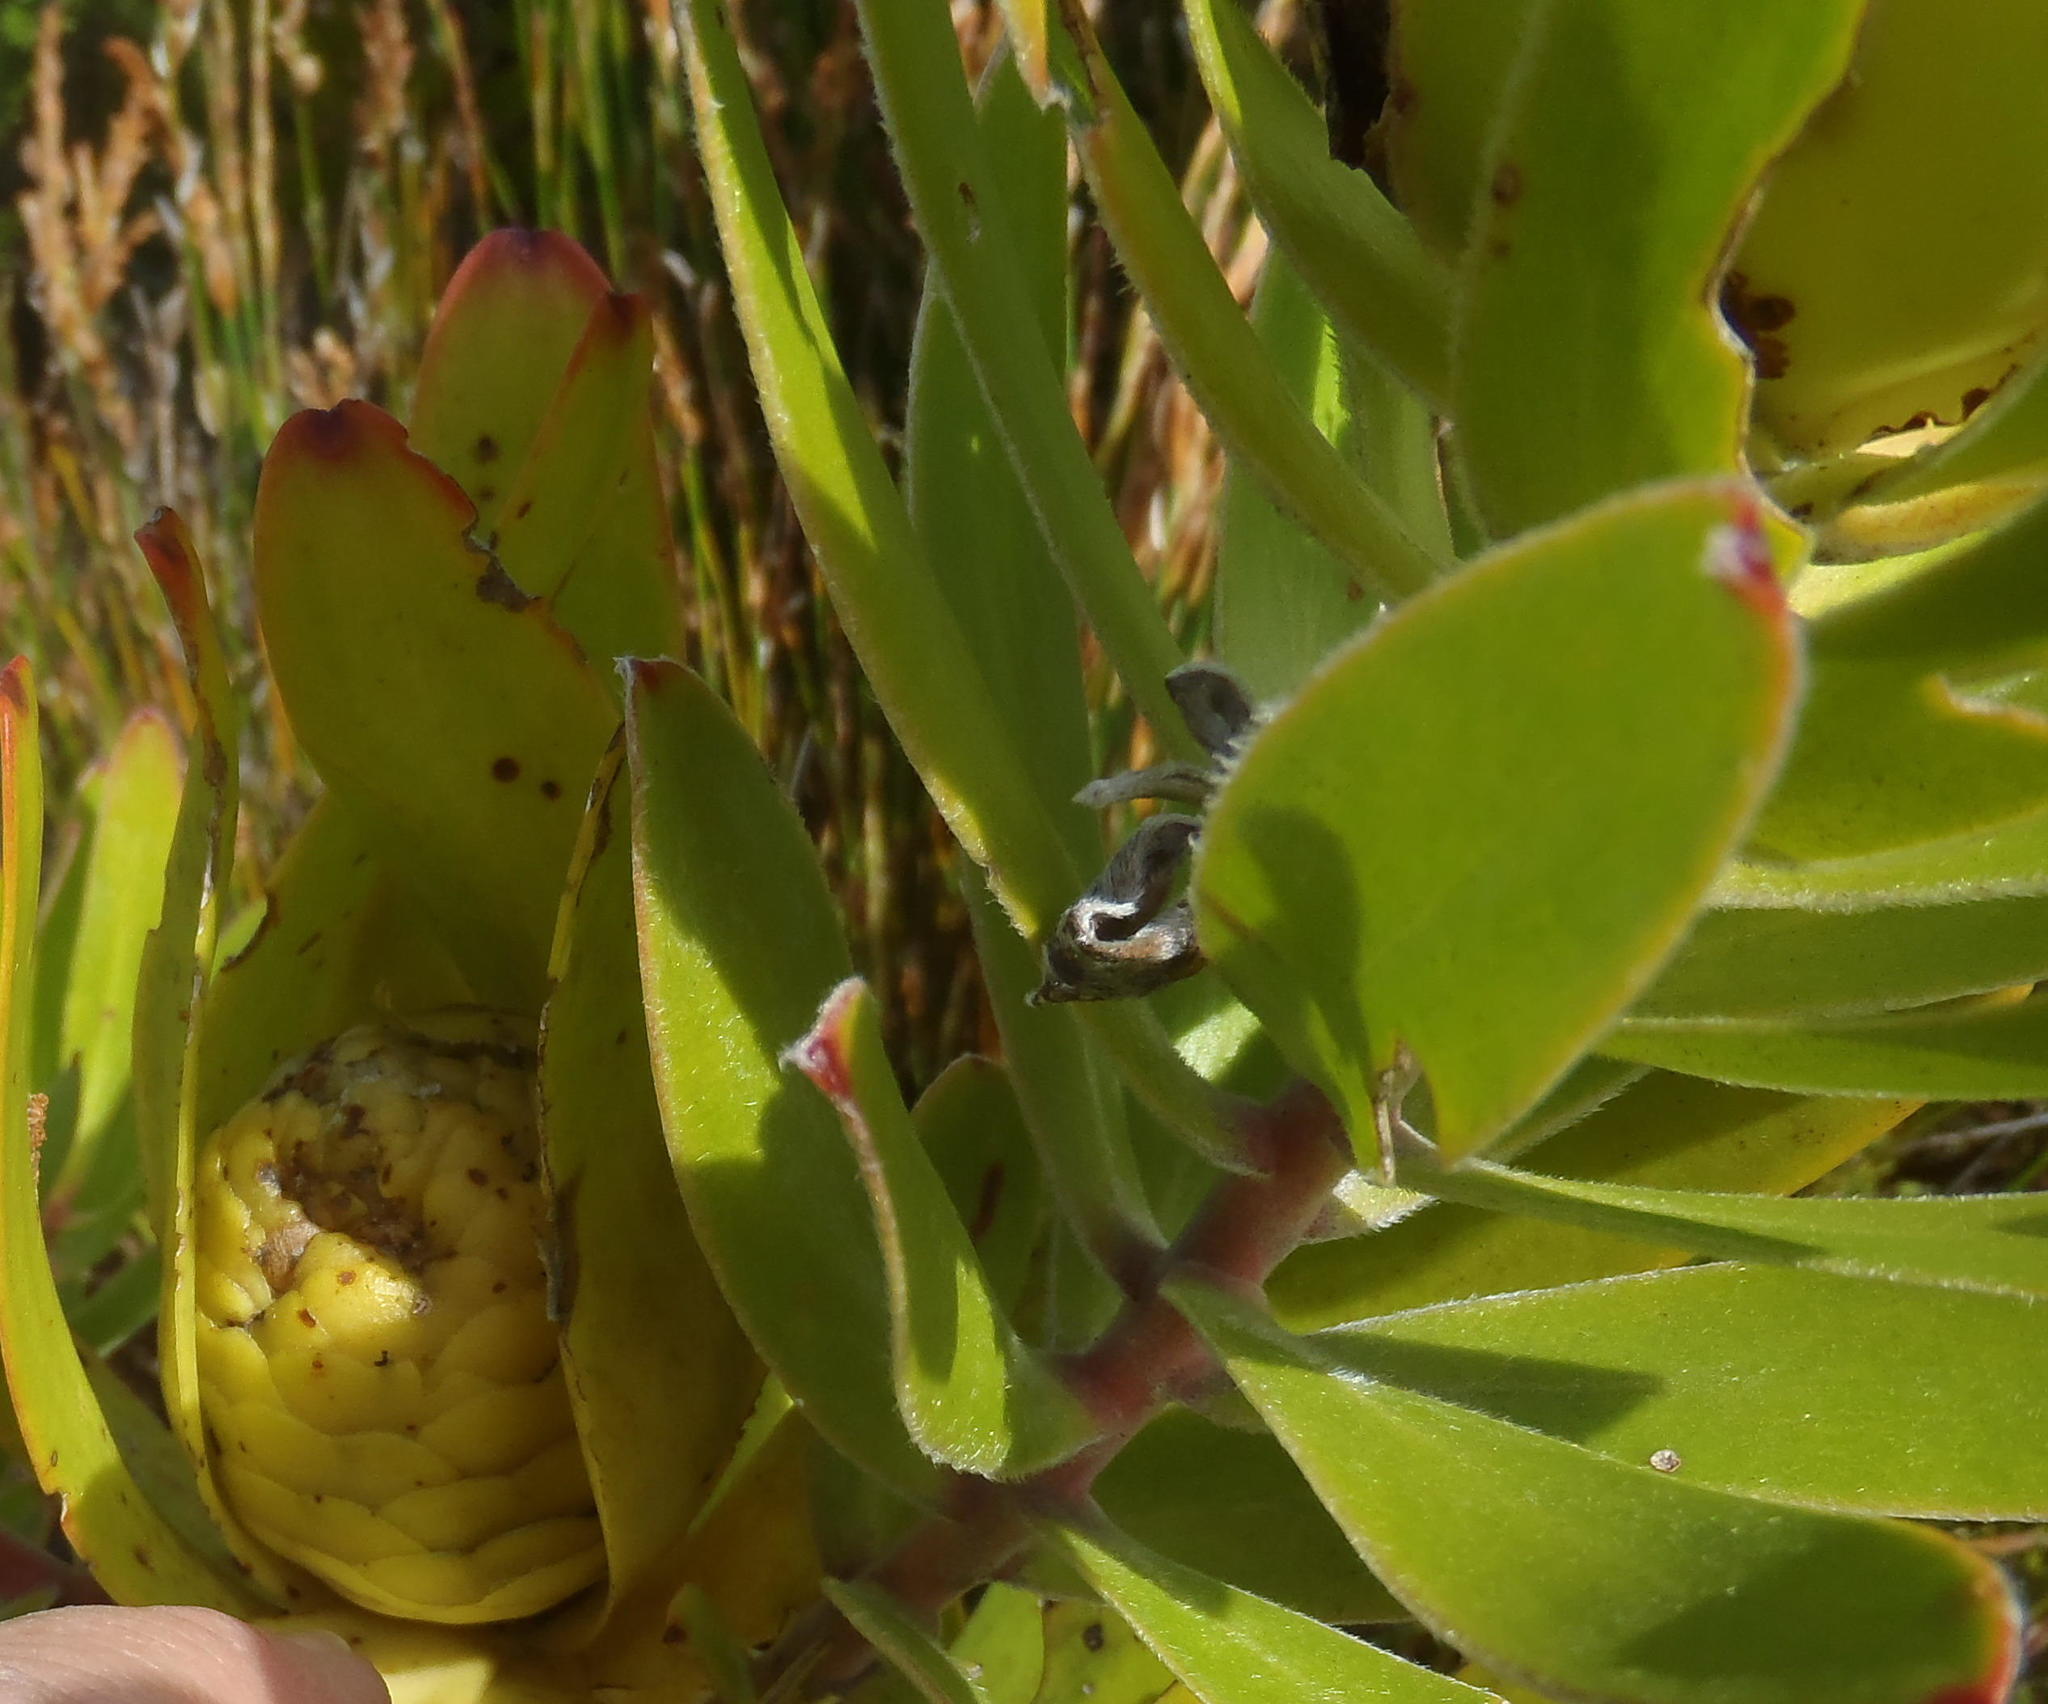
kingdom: Plantae
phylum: Tracheophyta
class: Magnoliopsida
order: Proteales
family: Proteaceae
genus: Leucadendron
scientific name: Leucadendron laureolum
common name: Golden sunshinebush
